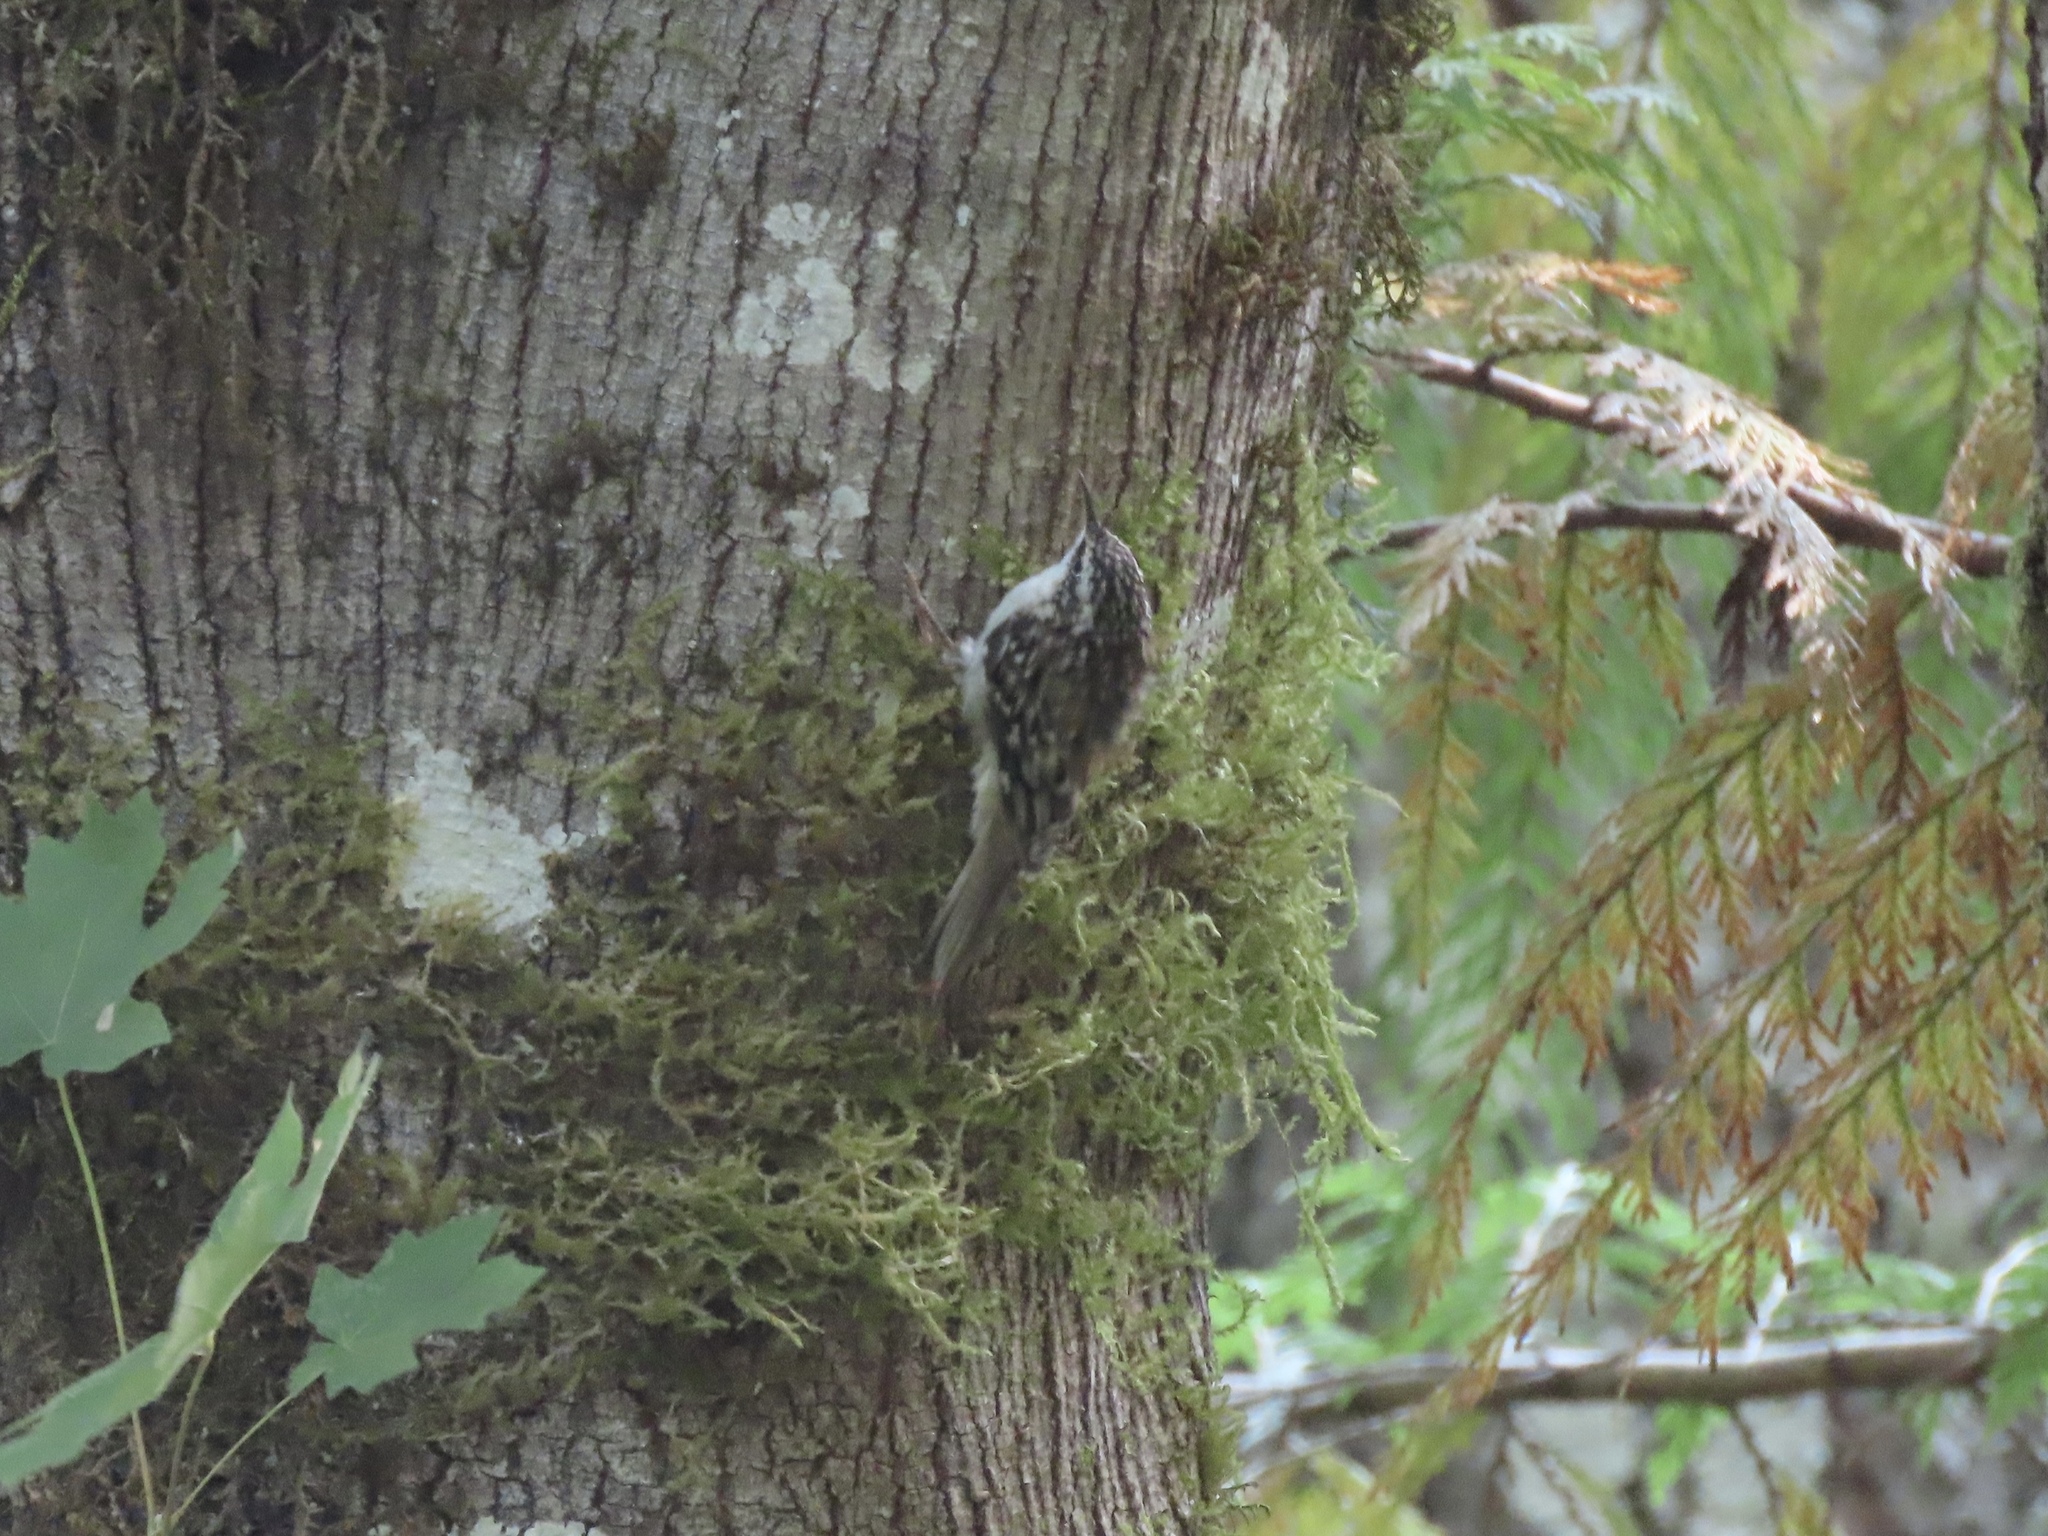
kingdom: Animalia
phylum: Chordata
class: Aves
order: Passeriformes
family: Certhiidae
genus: Certhia
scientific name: Certhia americana
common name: Brown creeper
